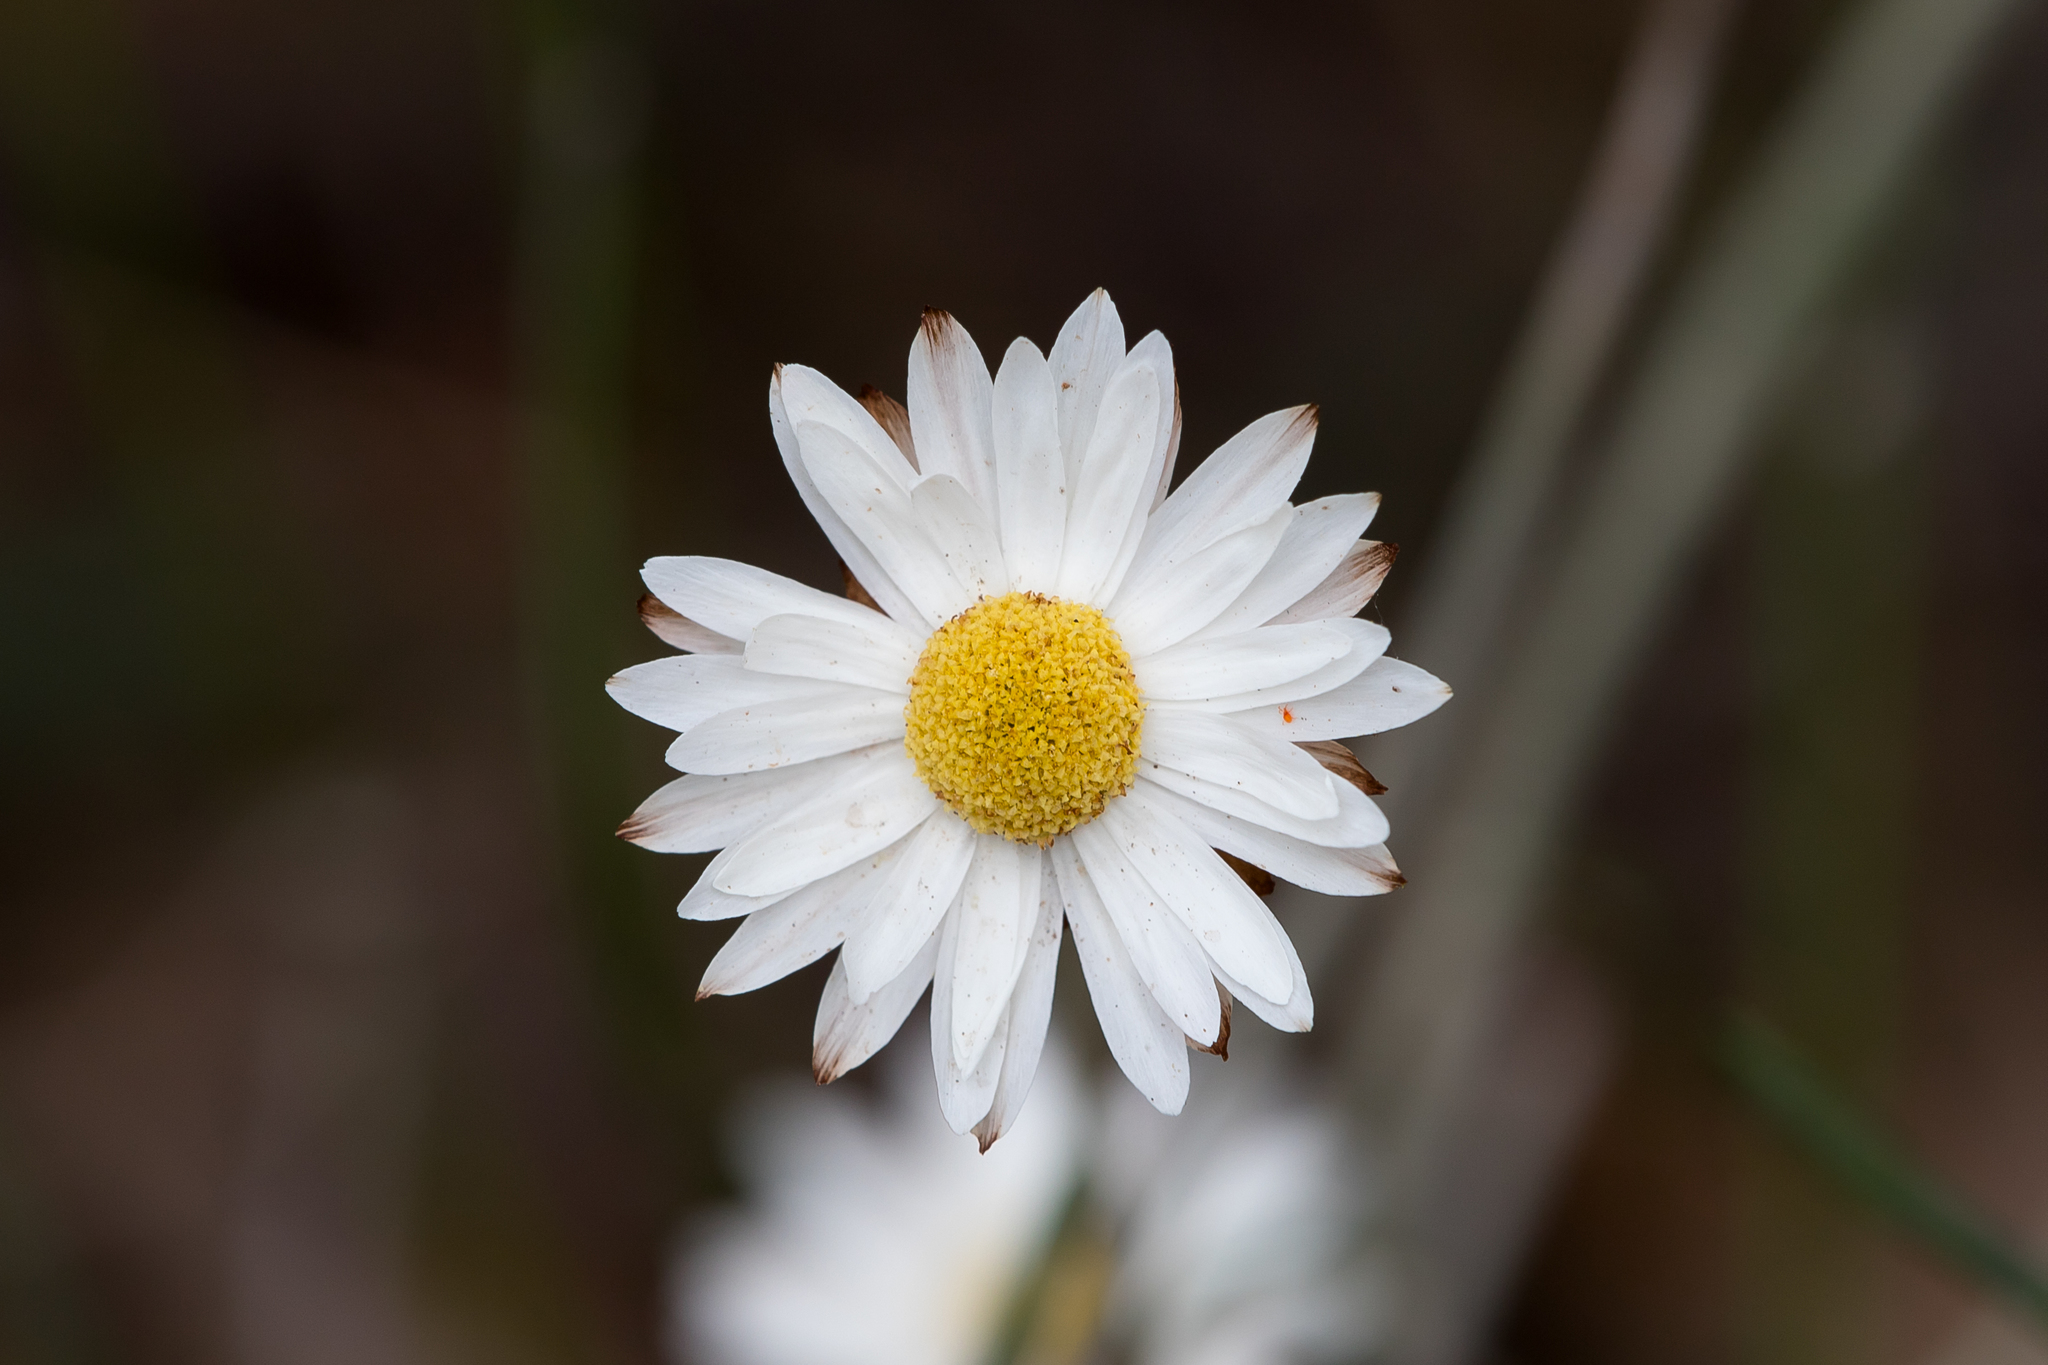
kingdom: Plantae
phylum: Tracheophyta
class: Magnoliopsida
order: Asterales
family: Asteraceae
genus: Argentipallium
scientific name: Argentipallium obtusifolium
